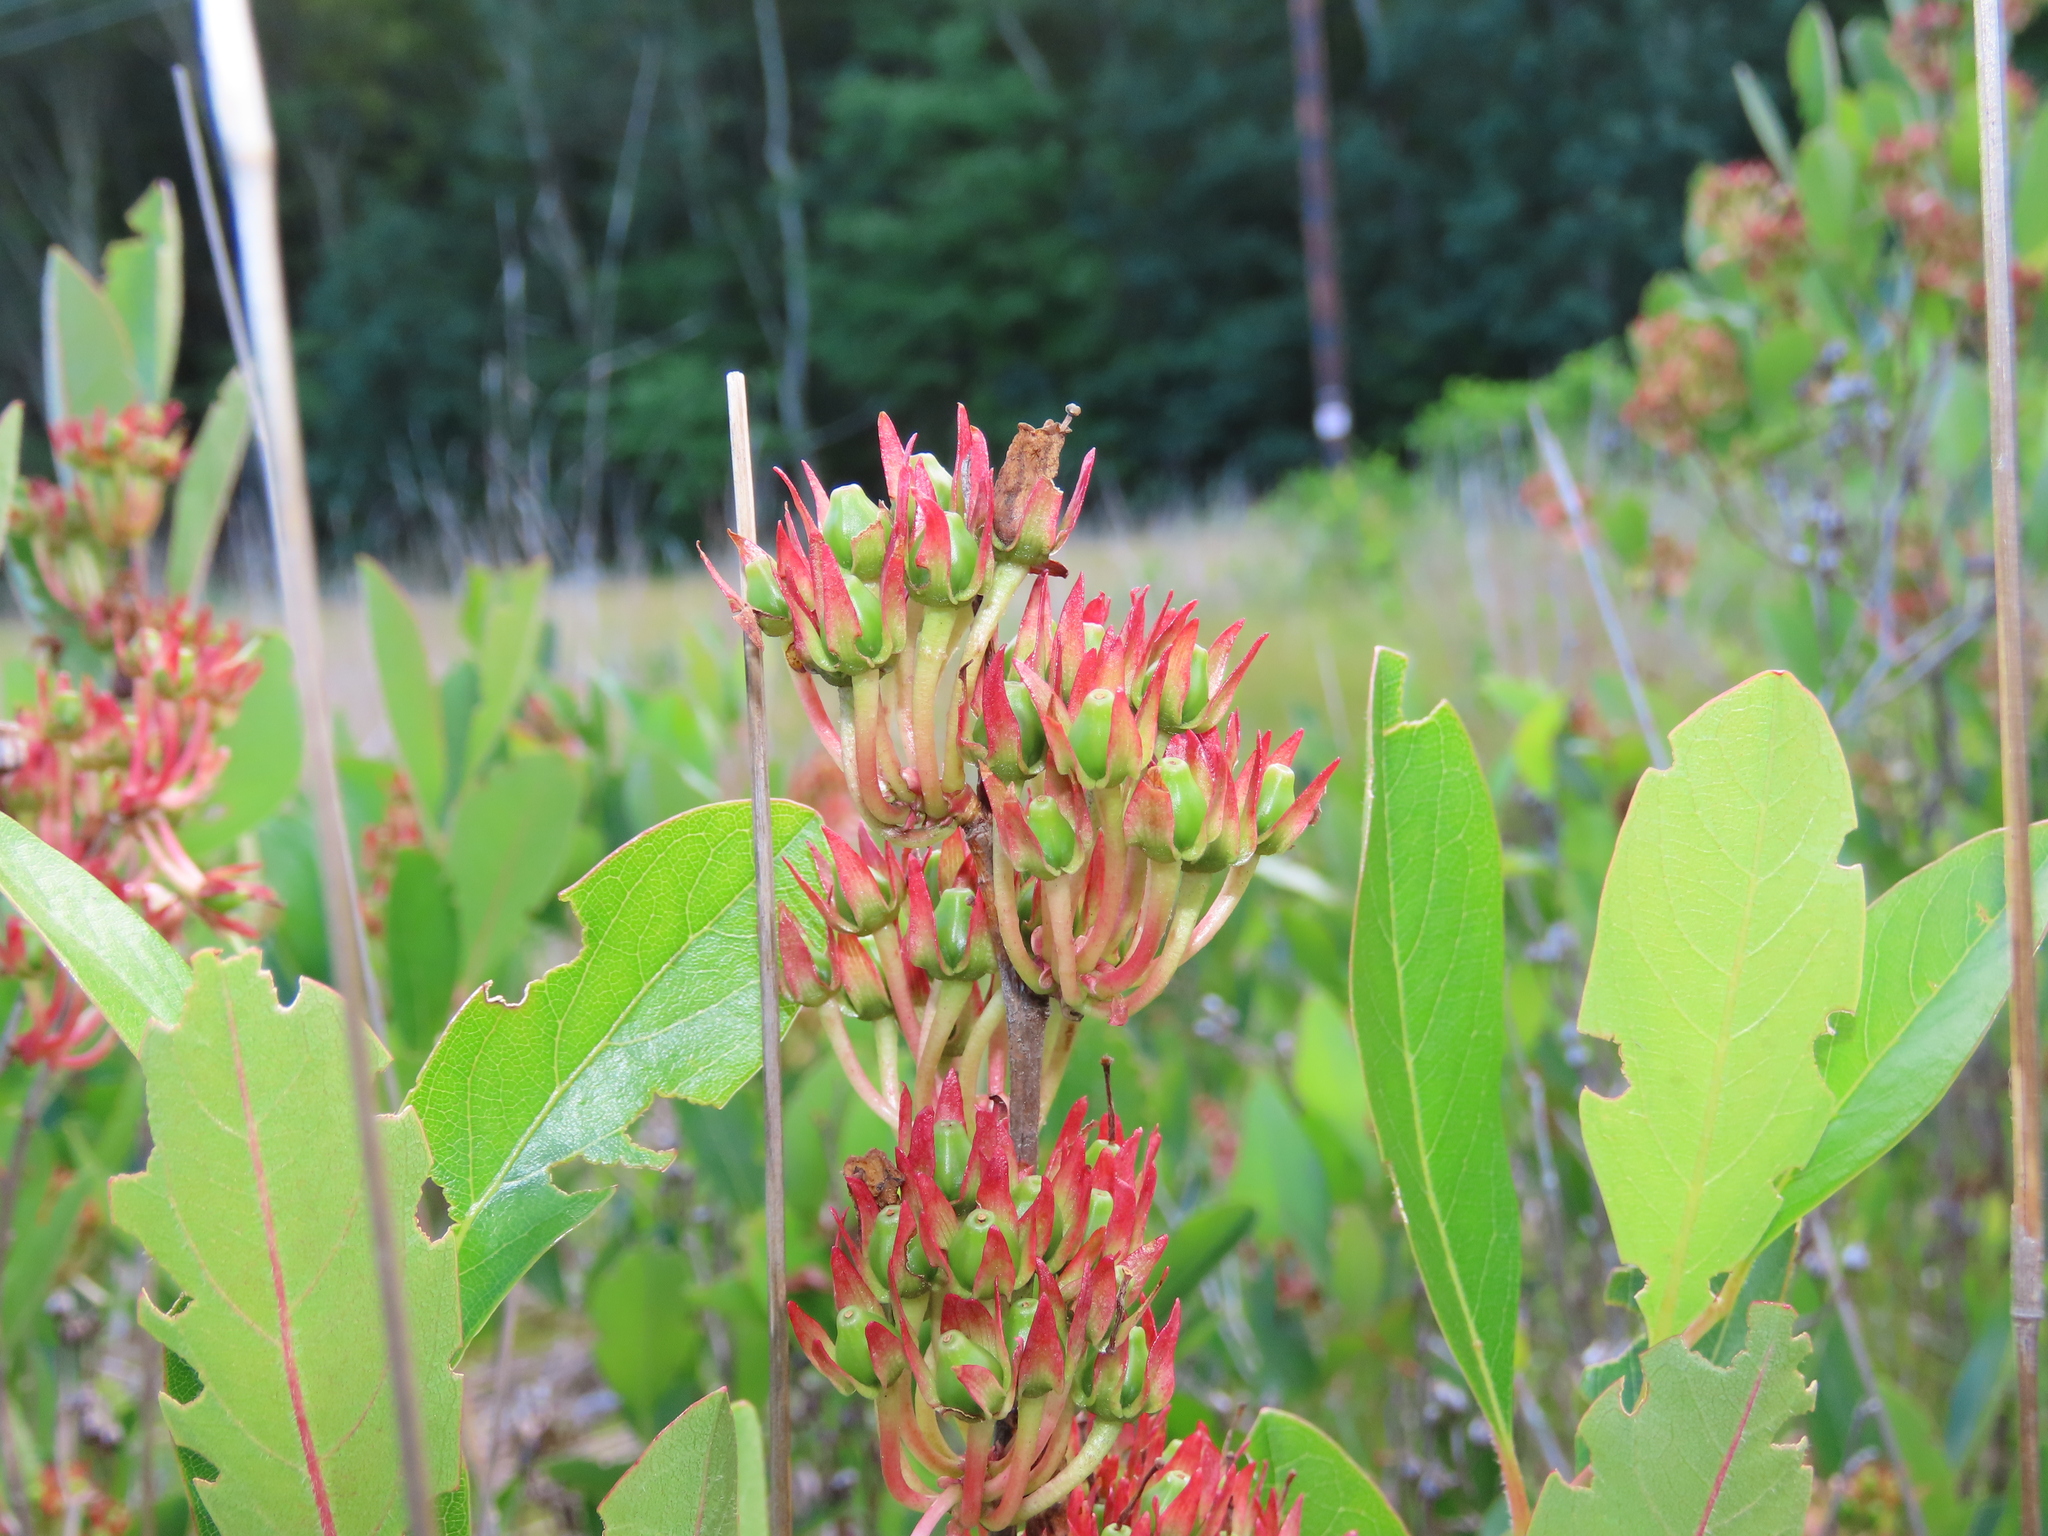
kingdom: Plantae
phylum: Tracheophyta
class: Magnoliopsida
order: Ericales
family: Ericaceae
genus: Lyonia
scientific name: Lyonia mariana
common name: Staggerbush
